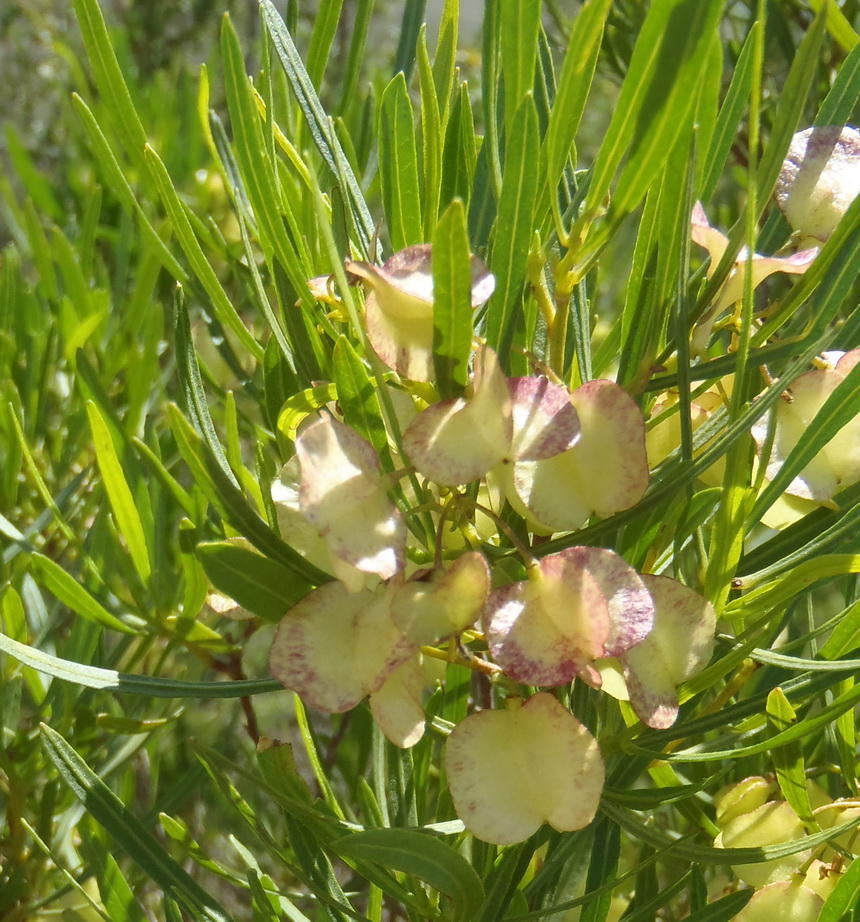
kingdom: Plantae
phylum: Tracheophyta
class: Magnoliopsida
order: Sapindales
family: Sapindaceae
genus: Dodonaea
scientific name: Dodonaea viscosa
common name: Hopbush
